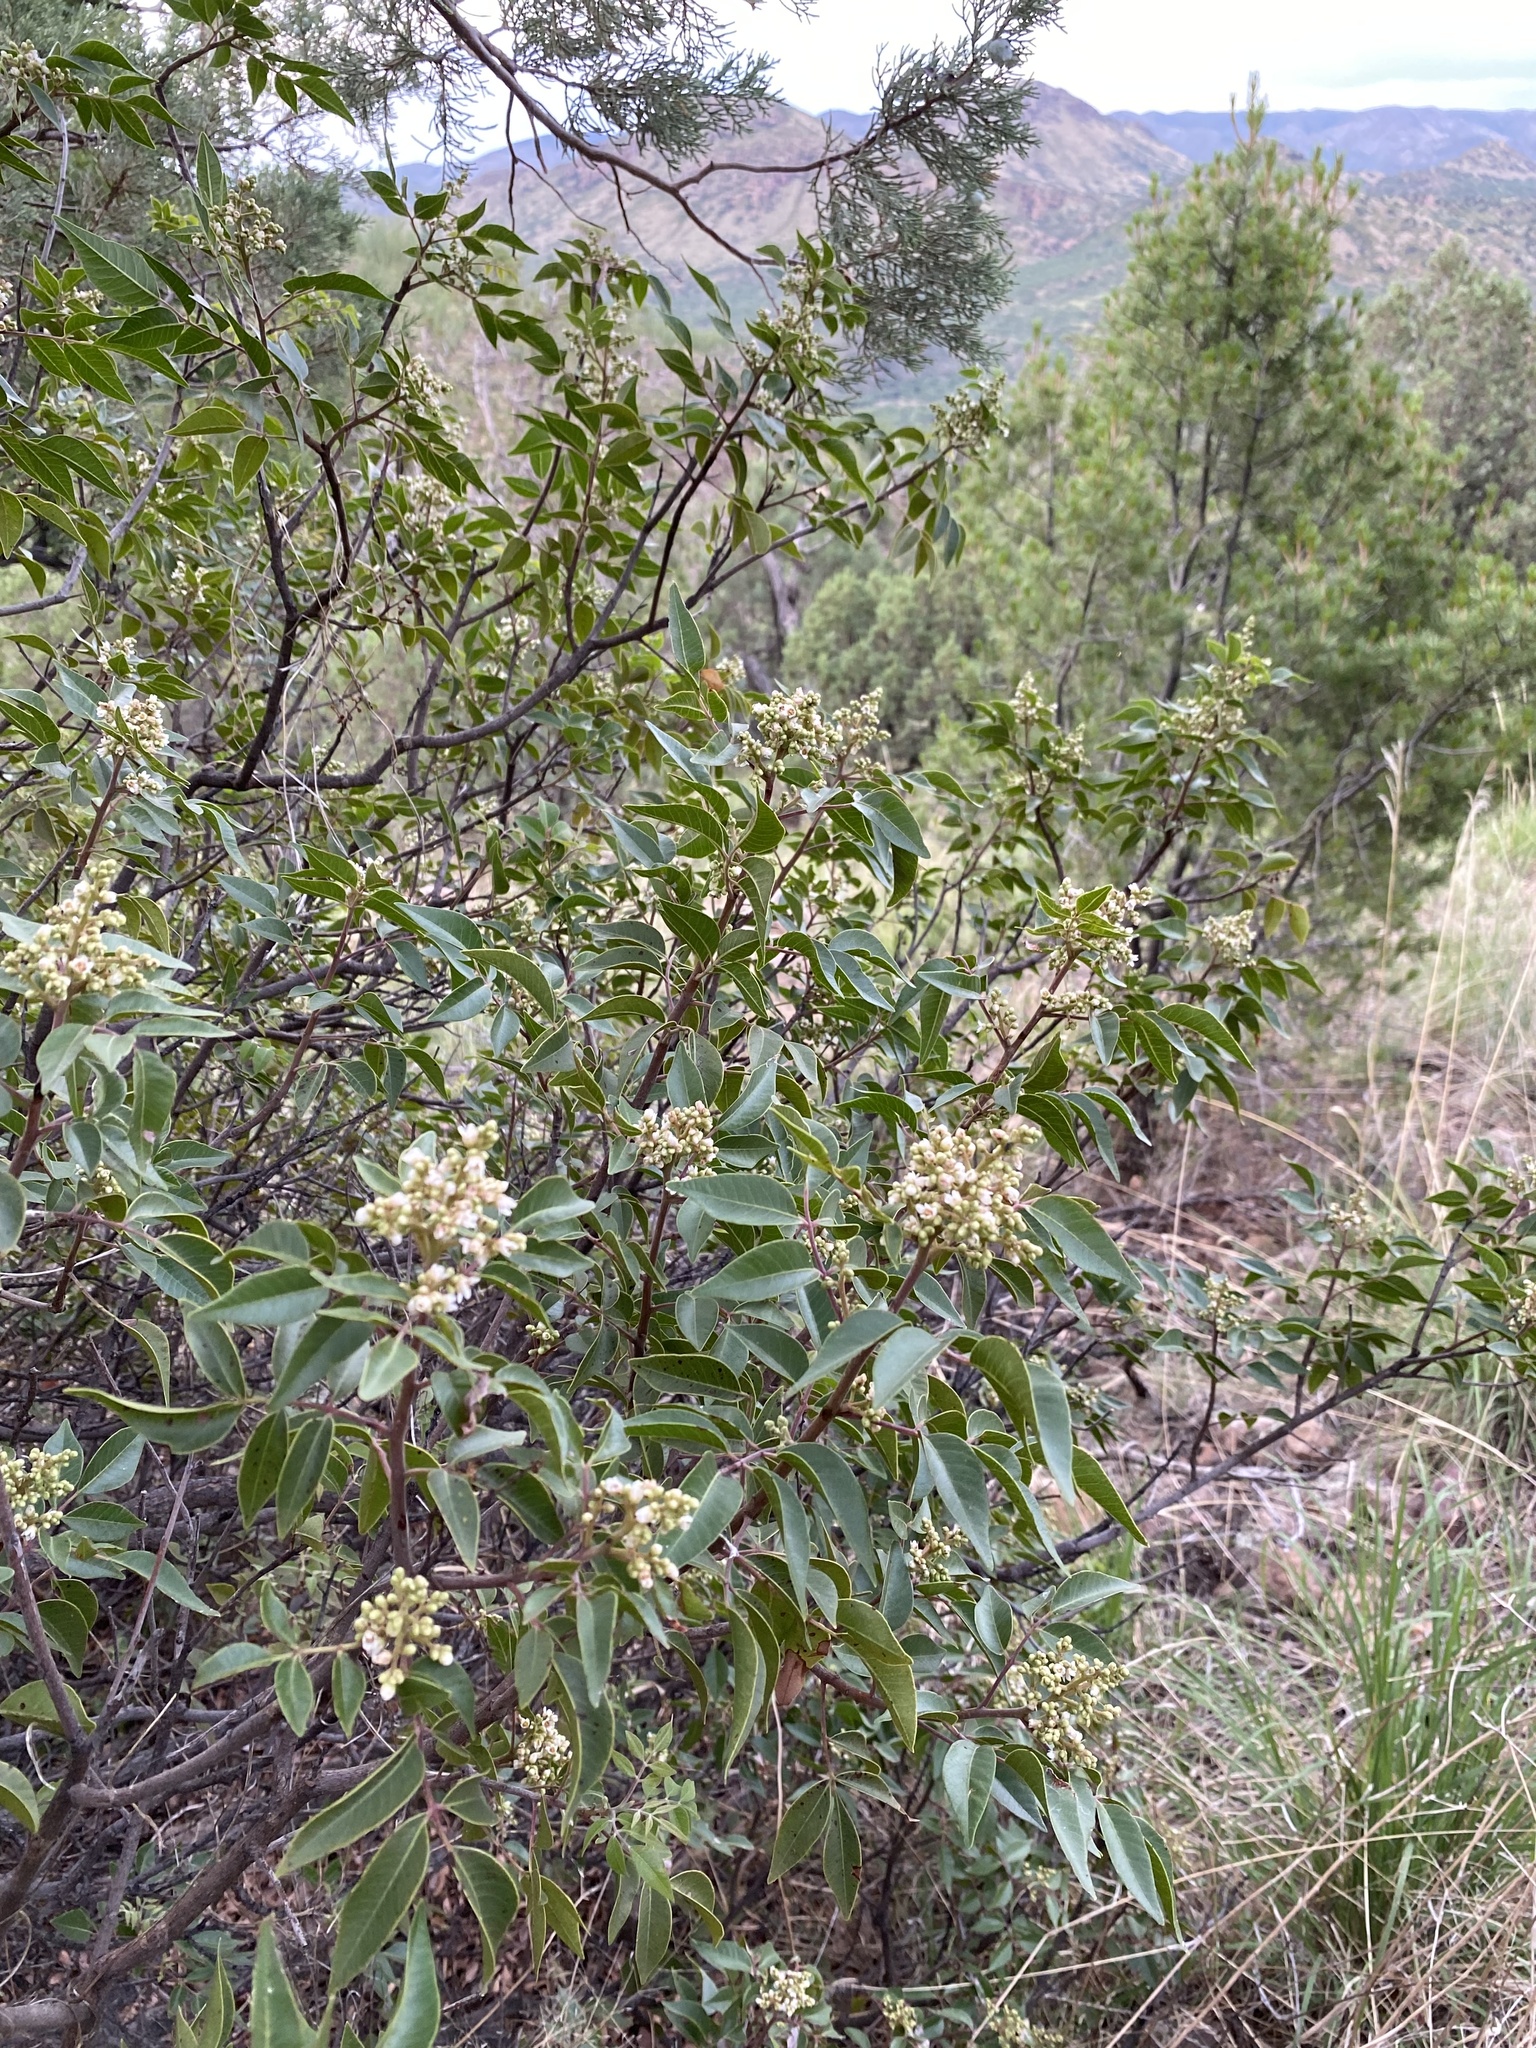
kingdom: Plantae
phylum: Tracheophyta
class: Magnoliopsida
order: Sapindales
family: Anacardiaceae
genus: Rhus
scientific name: Rhus virens
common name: Evergreen sumac
